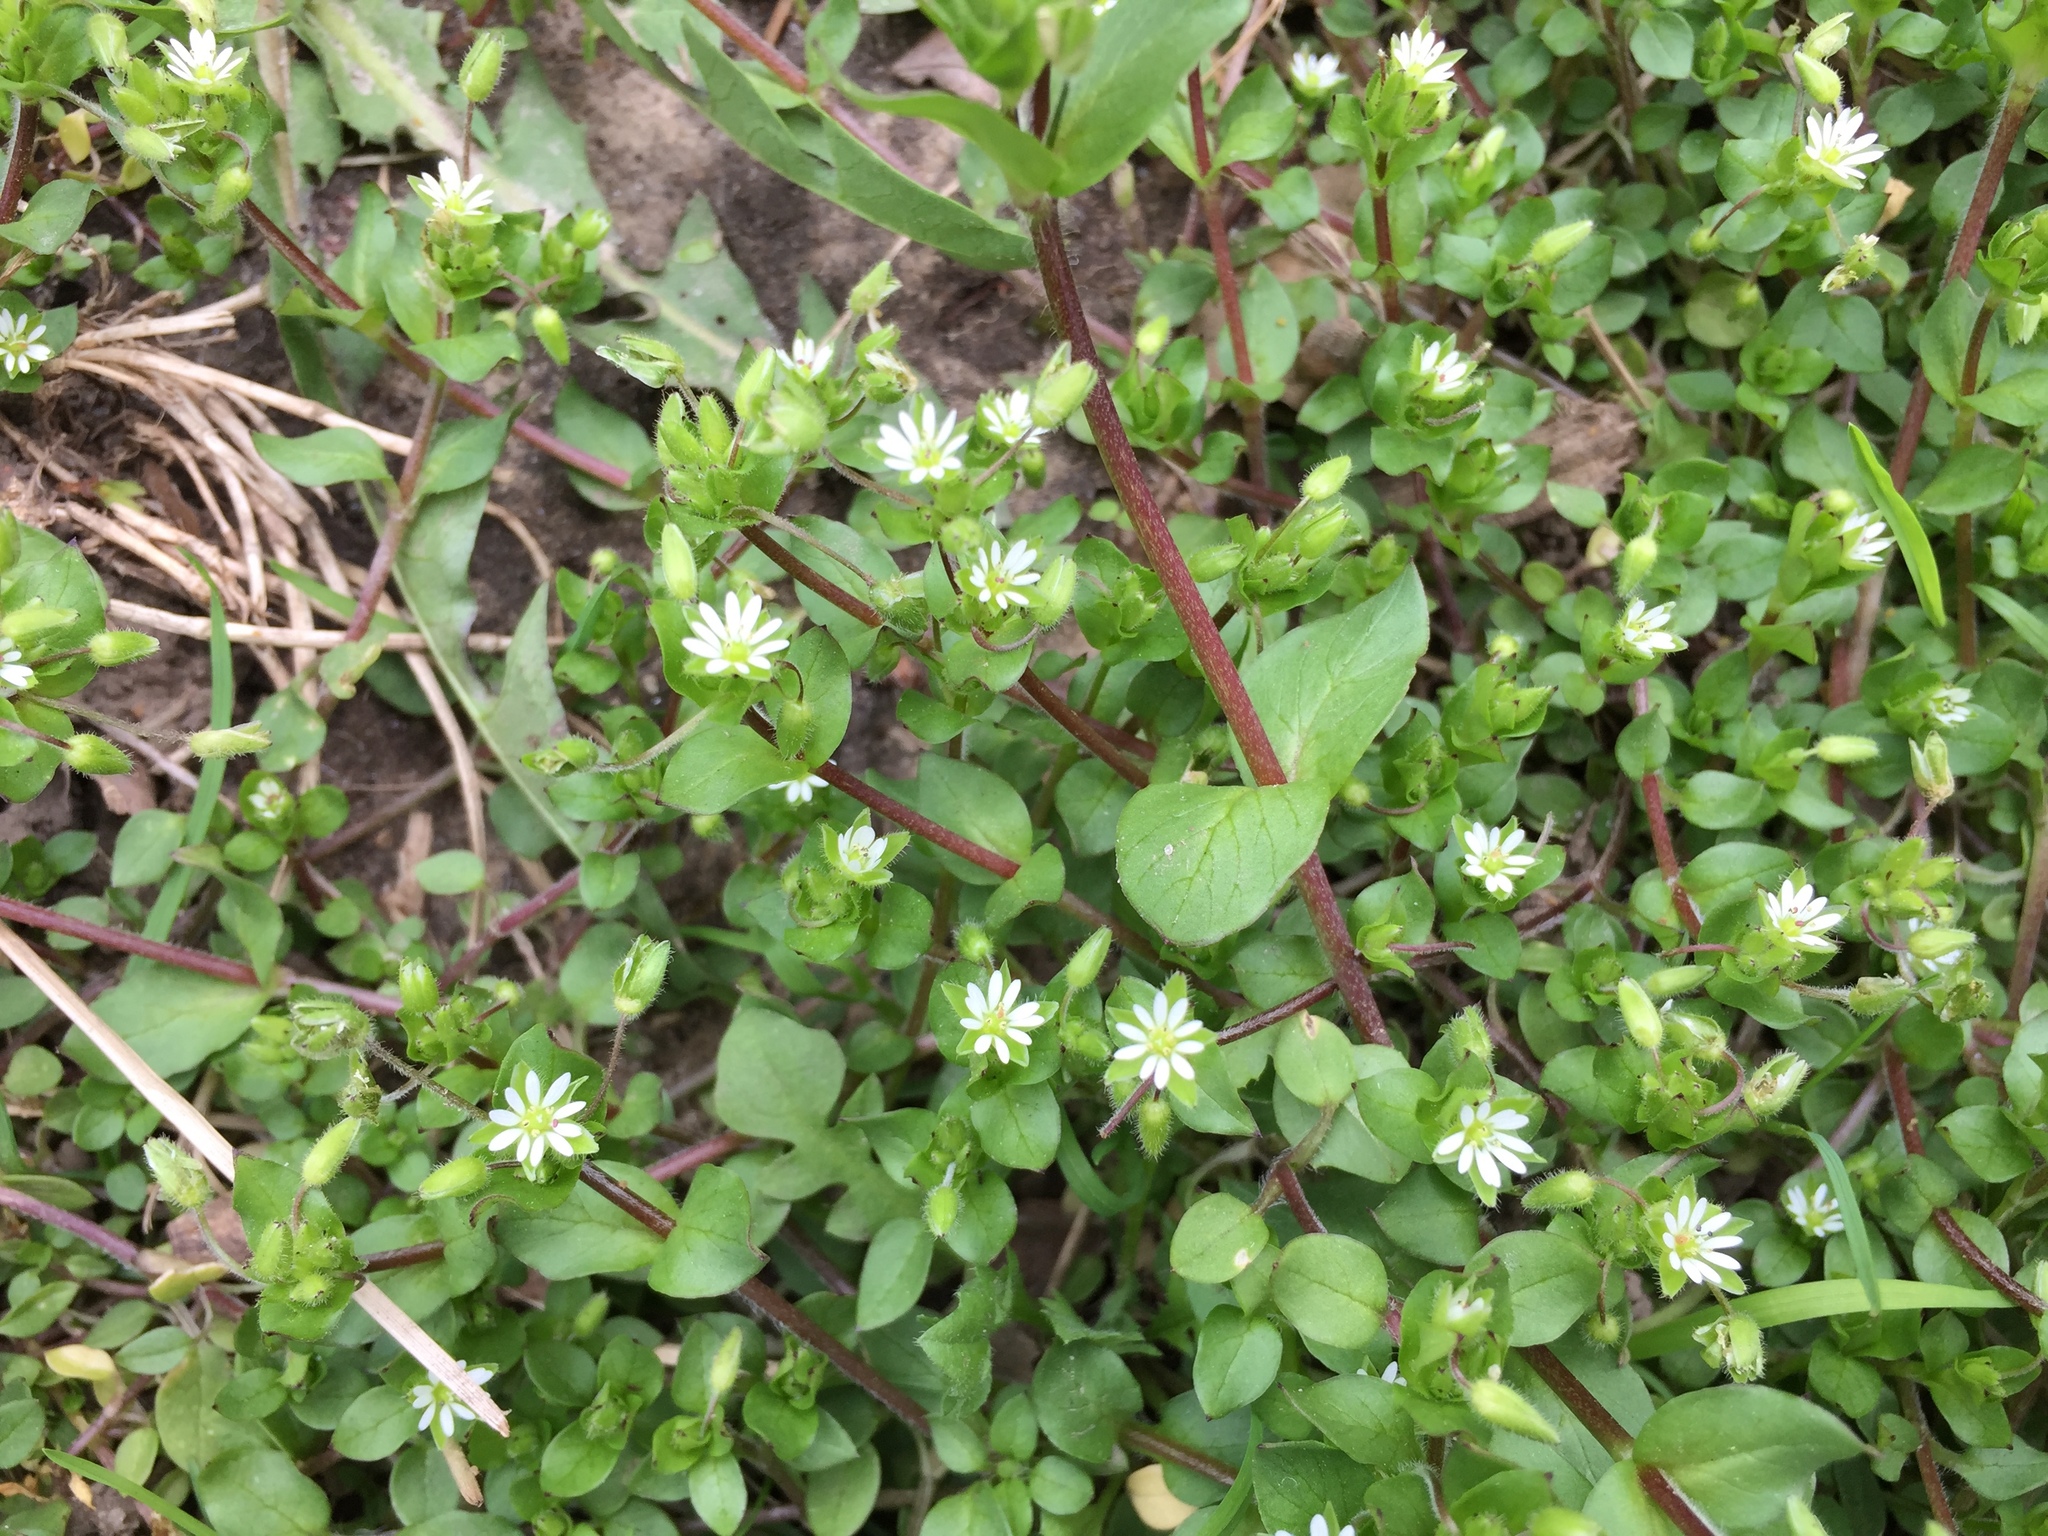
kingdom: Plantae
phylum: Tracheophyta
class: Magnoliopsida
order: Caryophyllales
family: Caryophyllaceae
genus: Stellaria
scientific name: Stellaria media
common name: Common chickweed
